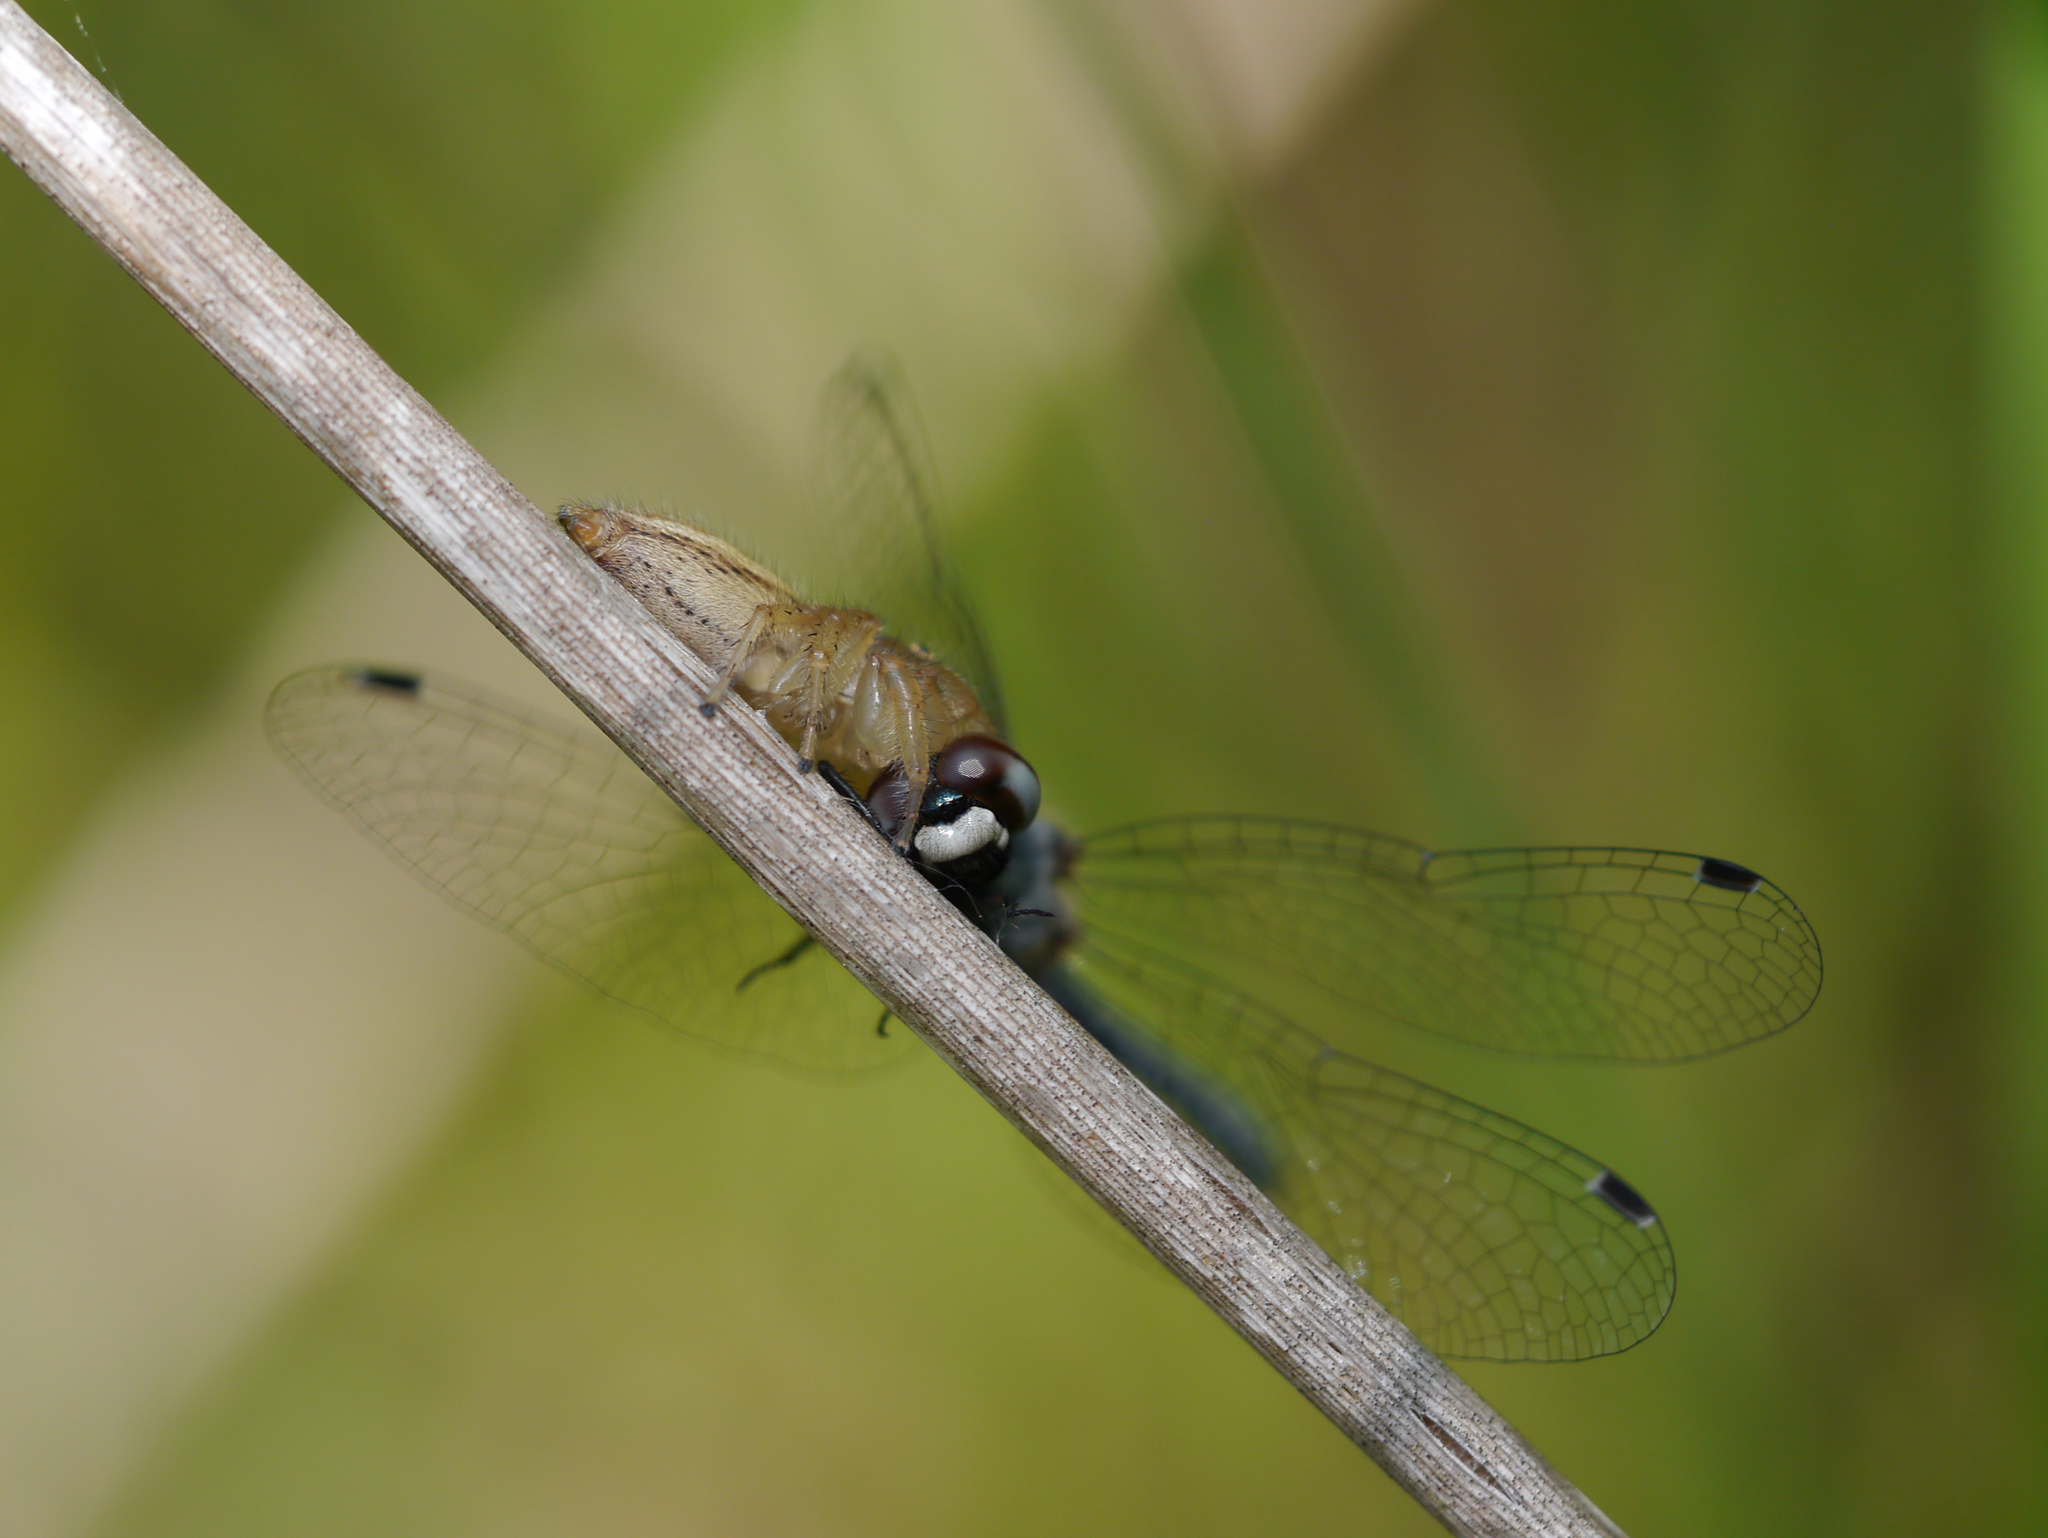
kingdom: Animalia
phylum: Arthropoda
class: Arachnida
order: Araneae
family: Salticidae
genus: Colonus
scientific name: Colonus puerperus
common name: Jumping spiders
